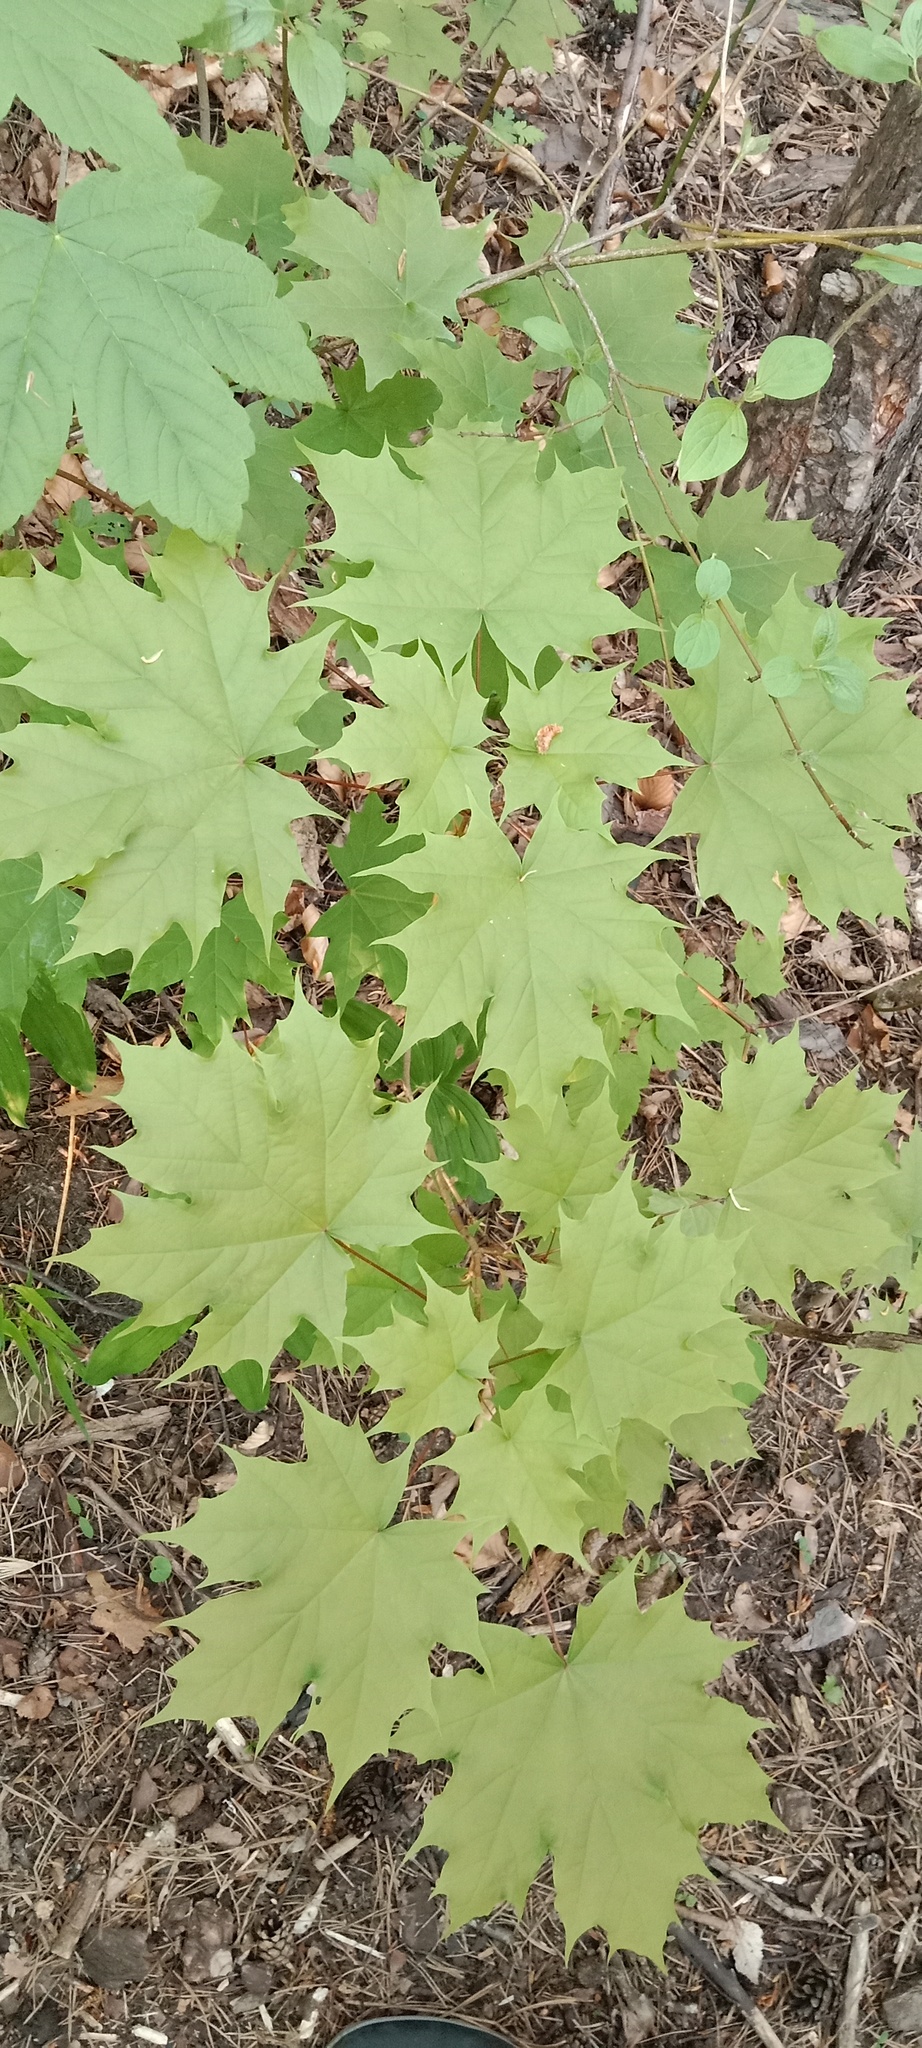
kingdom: Plantae
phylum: Tracheophyta
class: Magnoliopsida
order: Sapindales
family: Sapindaceae
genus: Acer
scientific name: Acer platanoides
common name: Norway maple
